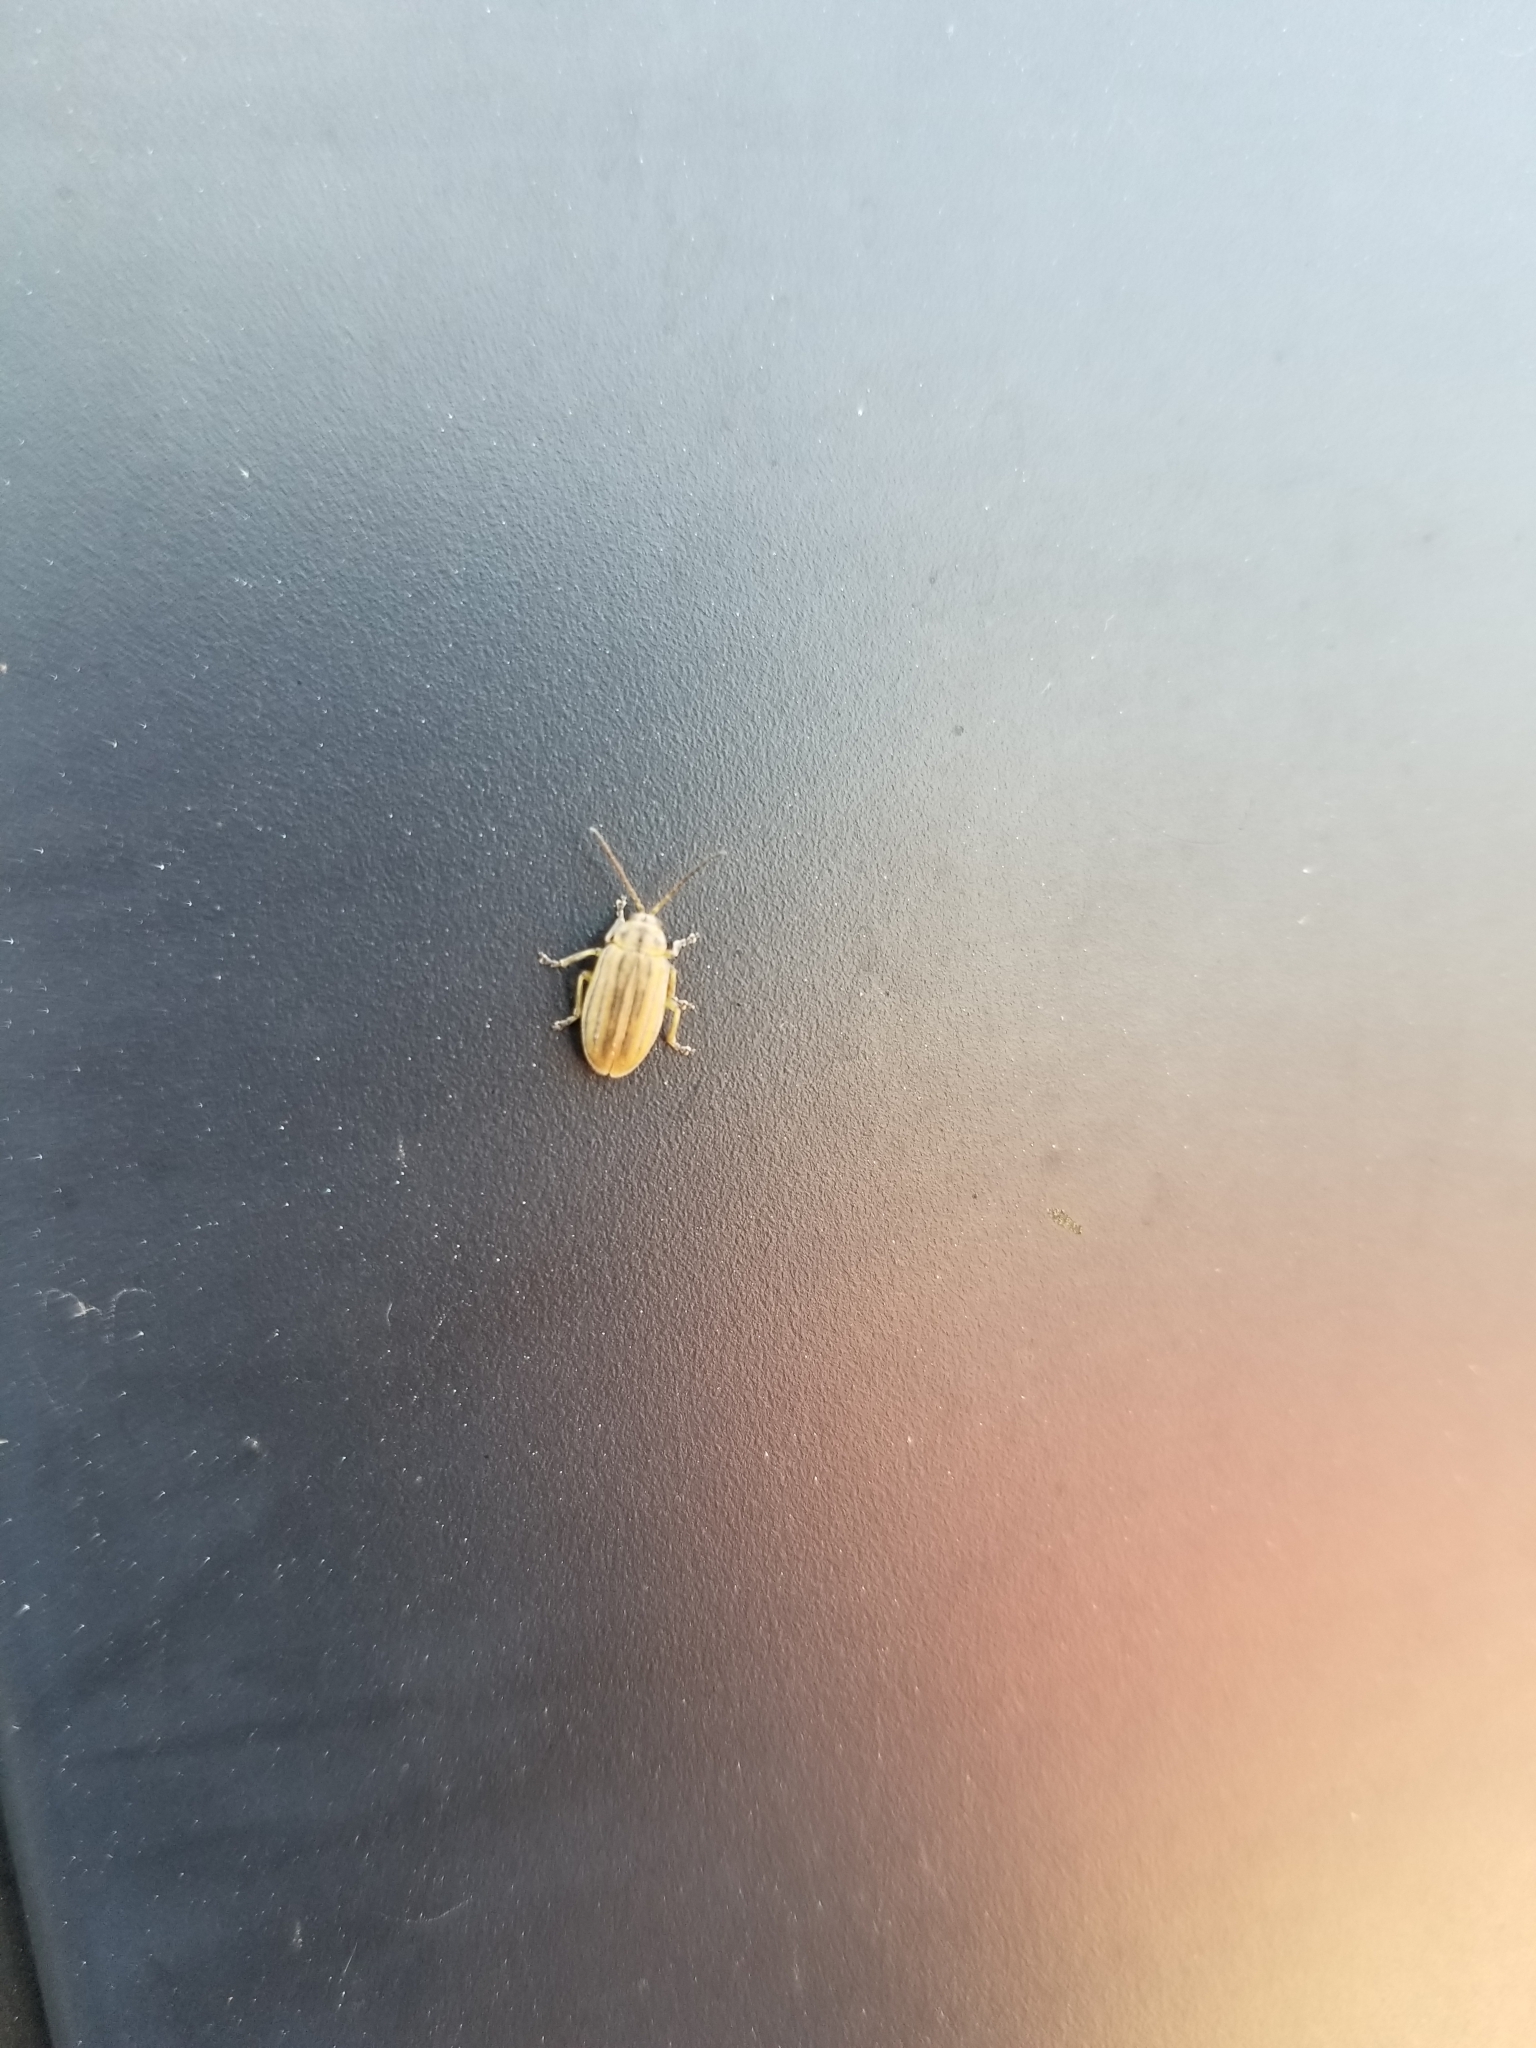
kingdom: Animalia
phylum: Arthropoda
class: Insecta
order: Coleoptera
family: Chrysomelidae
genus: Ophraella
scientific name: Ophraella notulata
